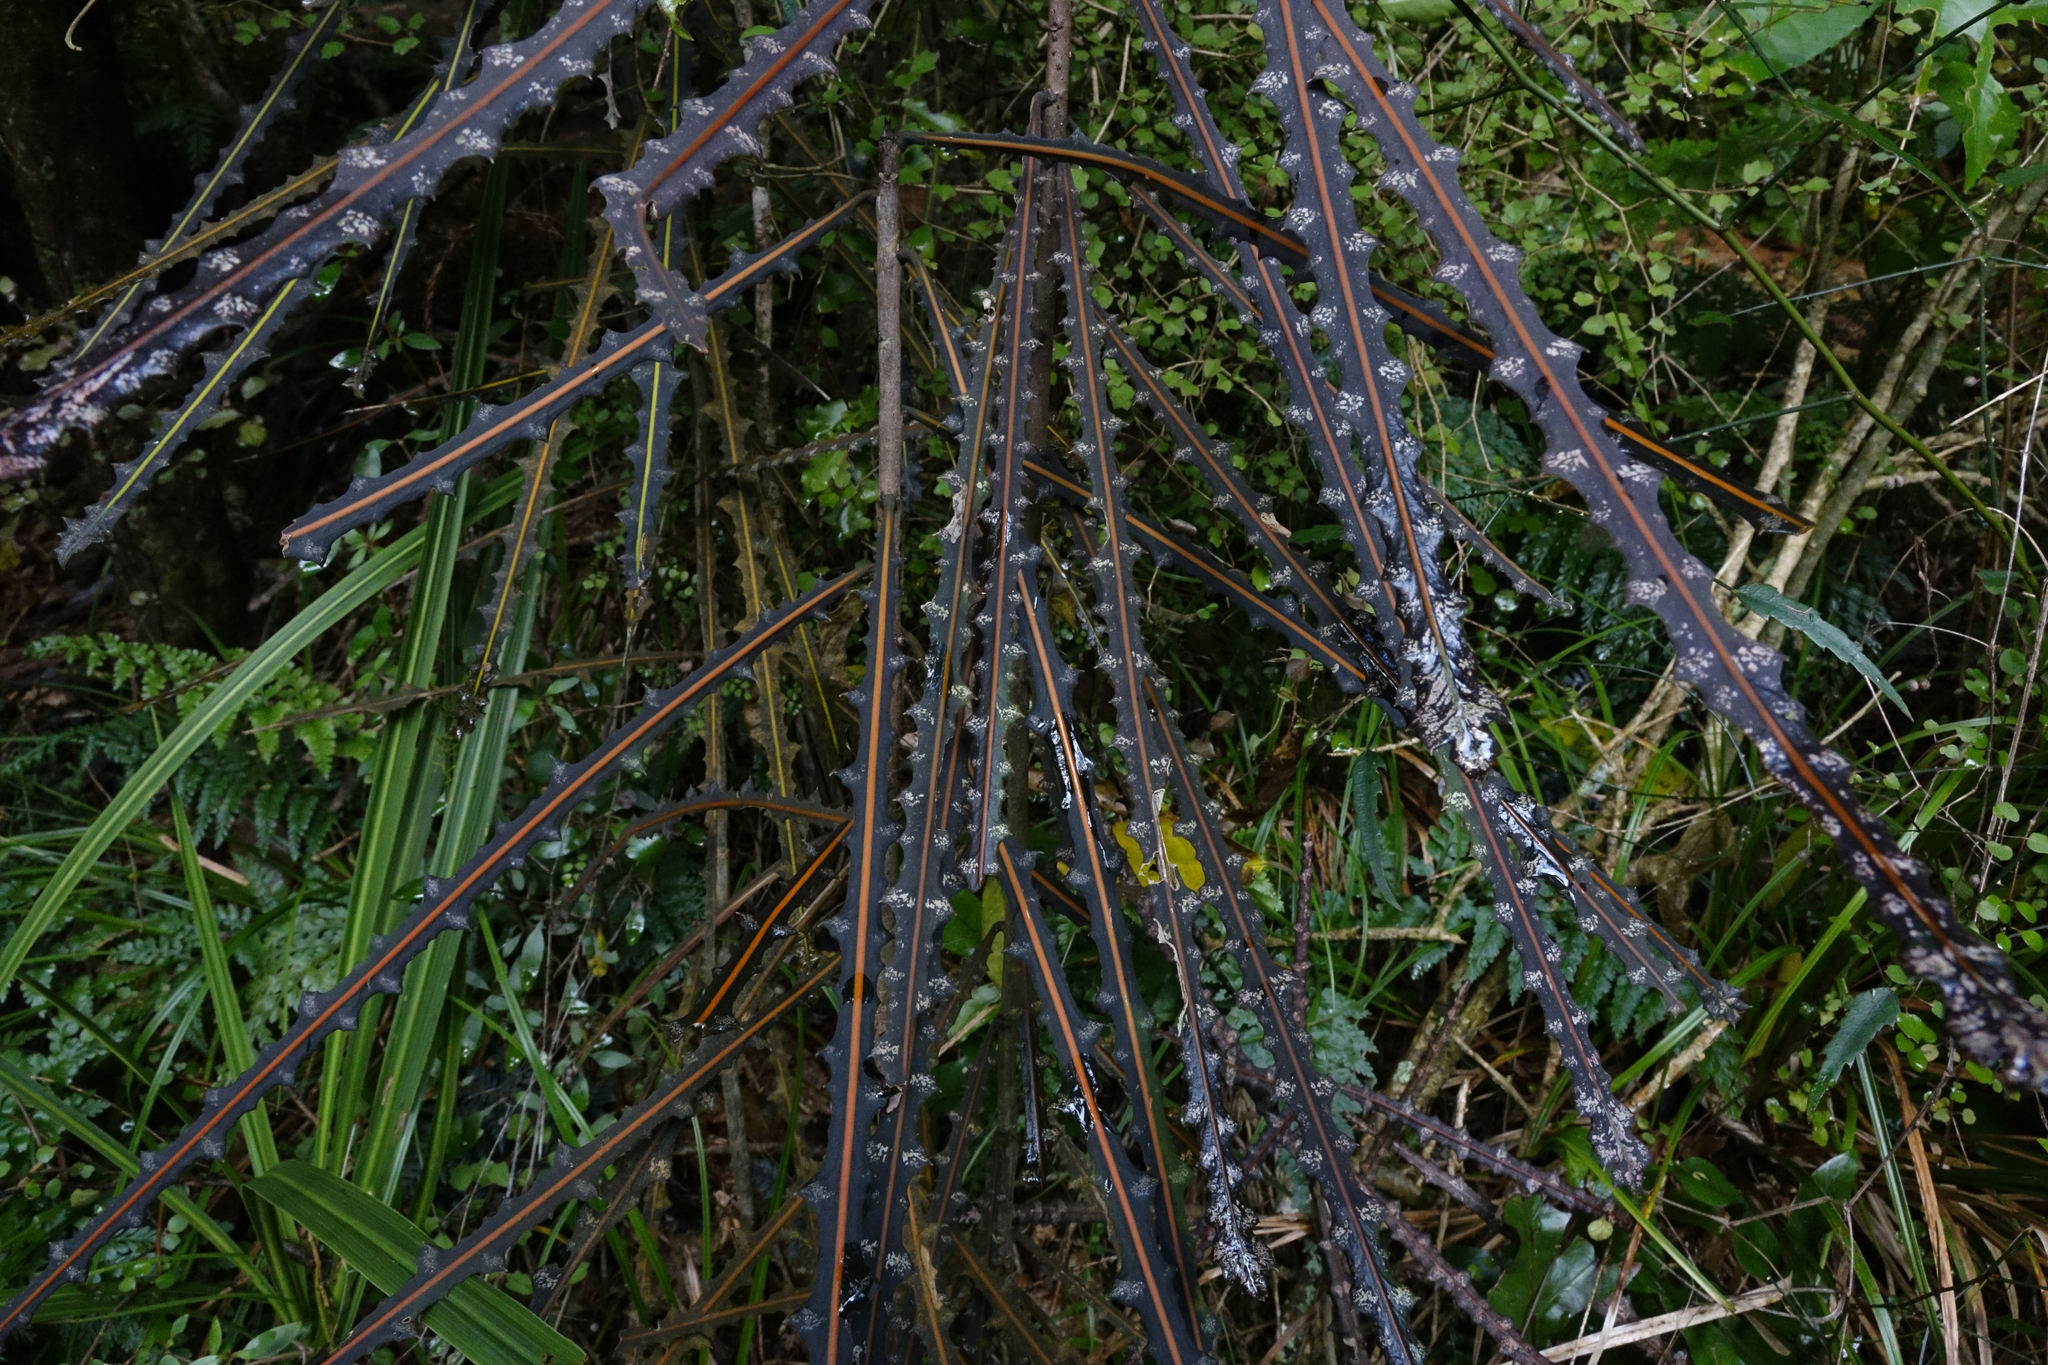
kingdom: Plantae
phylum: Tracheophyta
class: Magnoliopsida
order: Apiales
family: Araliaceae
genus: Pseudopanax
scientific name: Pseudopanax ferox
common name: Fierce lancewood
